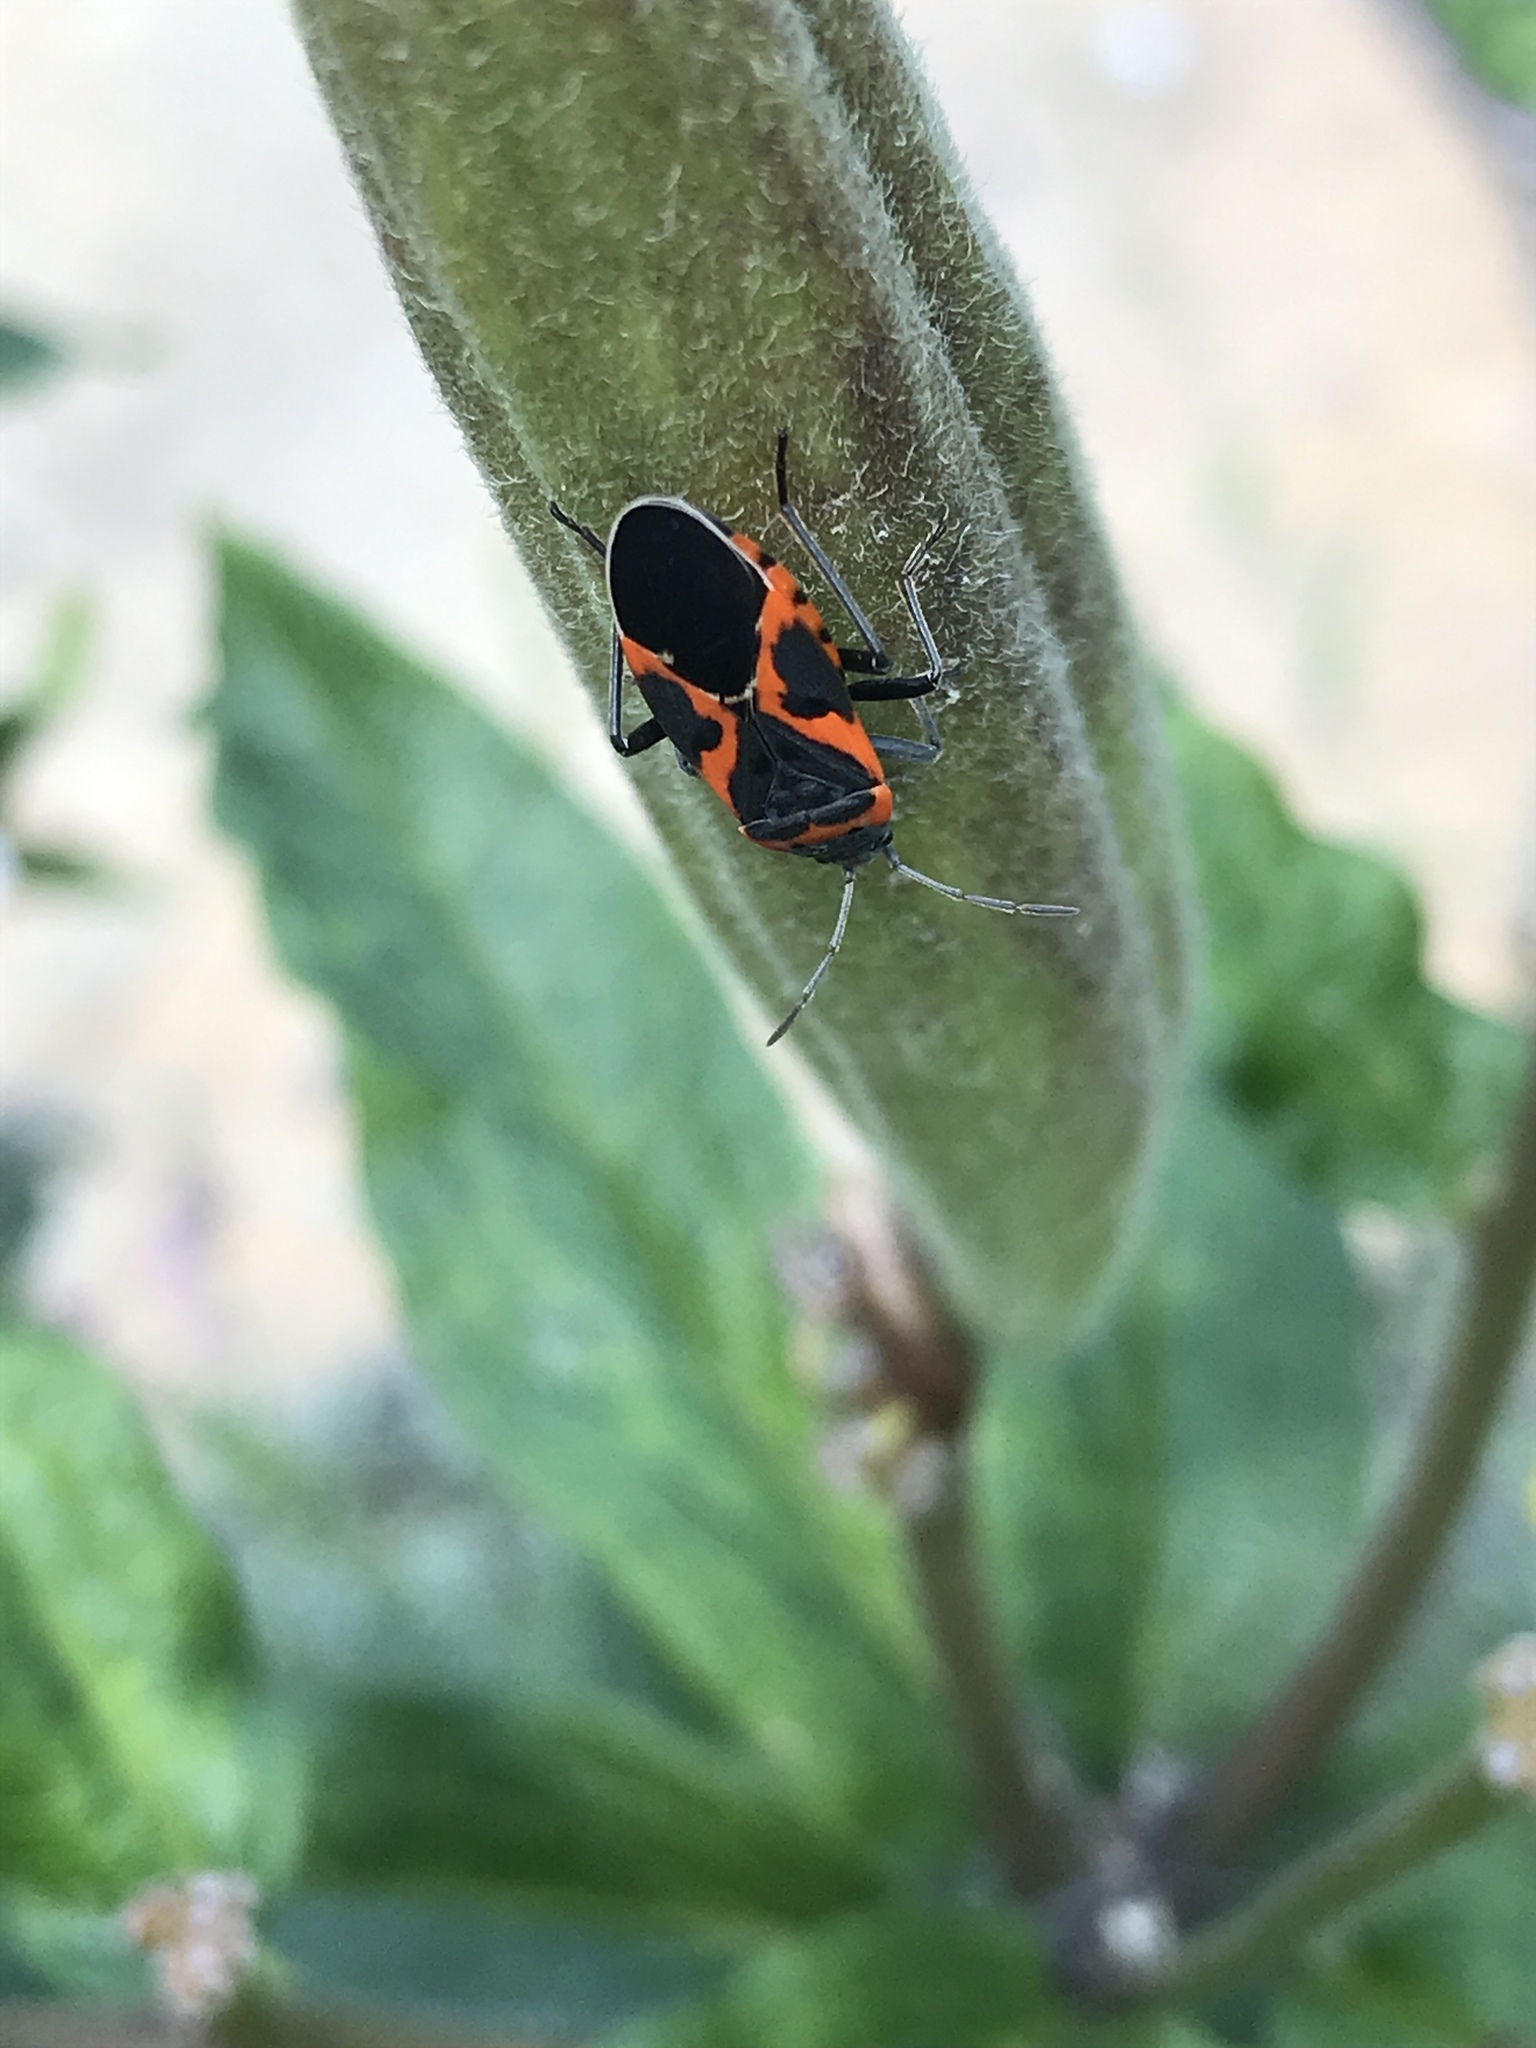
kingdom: Animalia
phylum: Arthropoda
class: Insecta
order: Hemiptera
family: Lygaeidae
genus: Lygaeus
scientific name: Lygaeus kalmii
